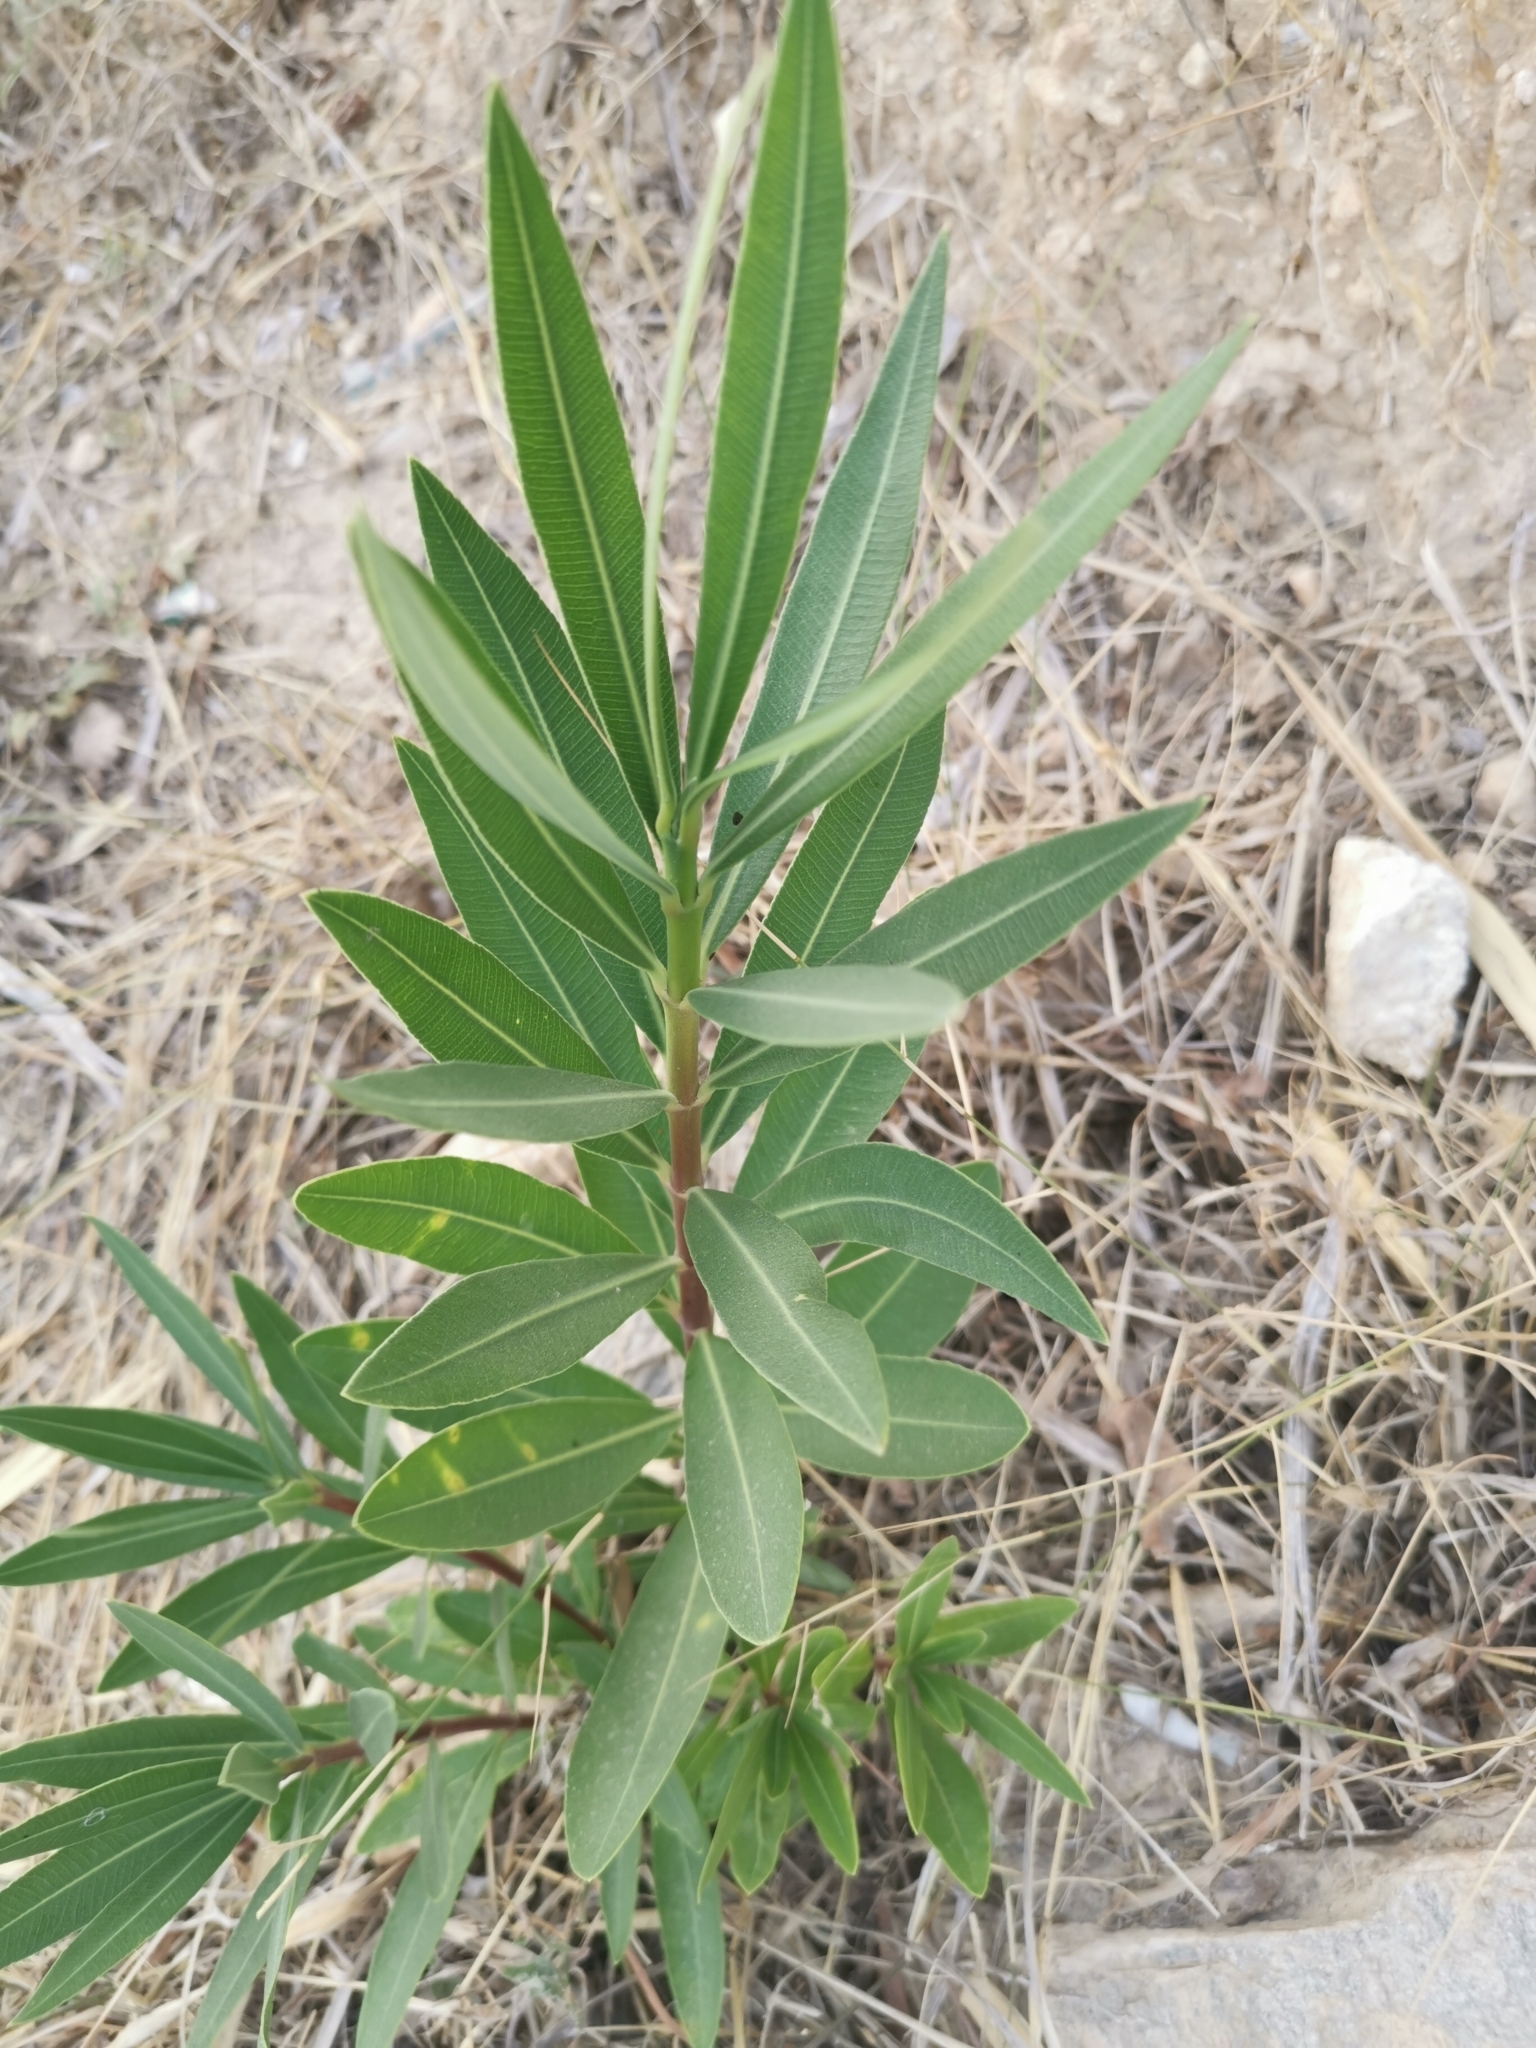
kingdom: Plantae
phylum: Tracheophyta
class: Magnoliopsida
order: Gentianales
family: Apocynaceae
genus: Nerium
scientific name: Nerium oleander
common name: Oleander
